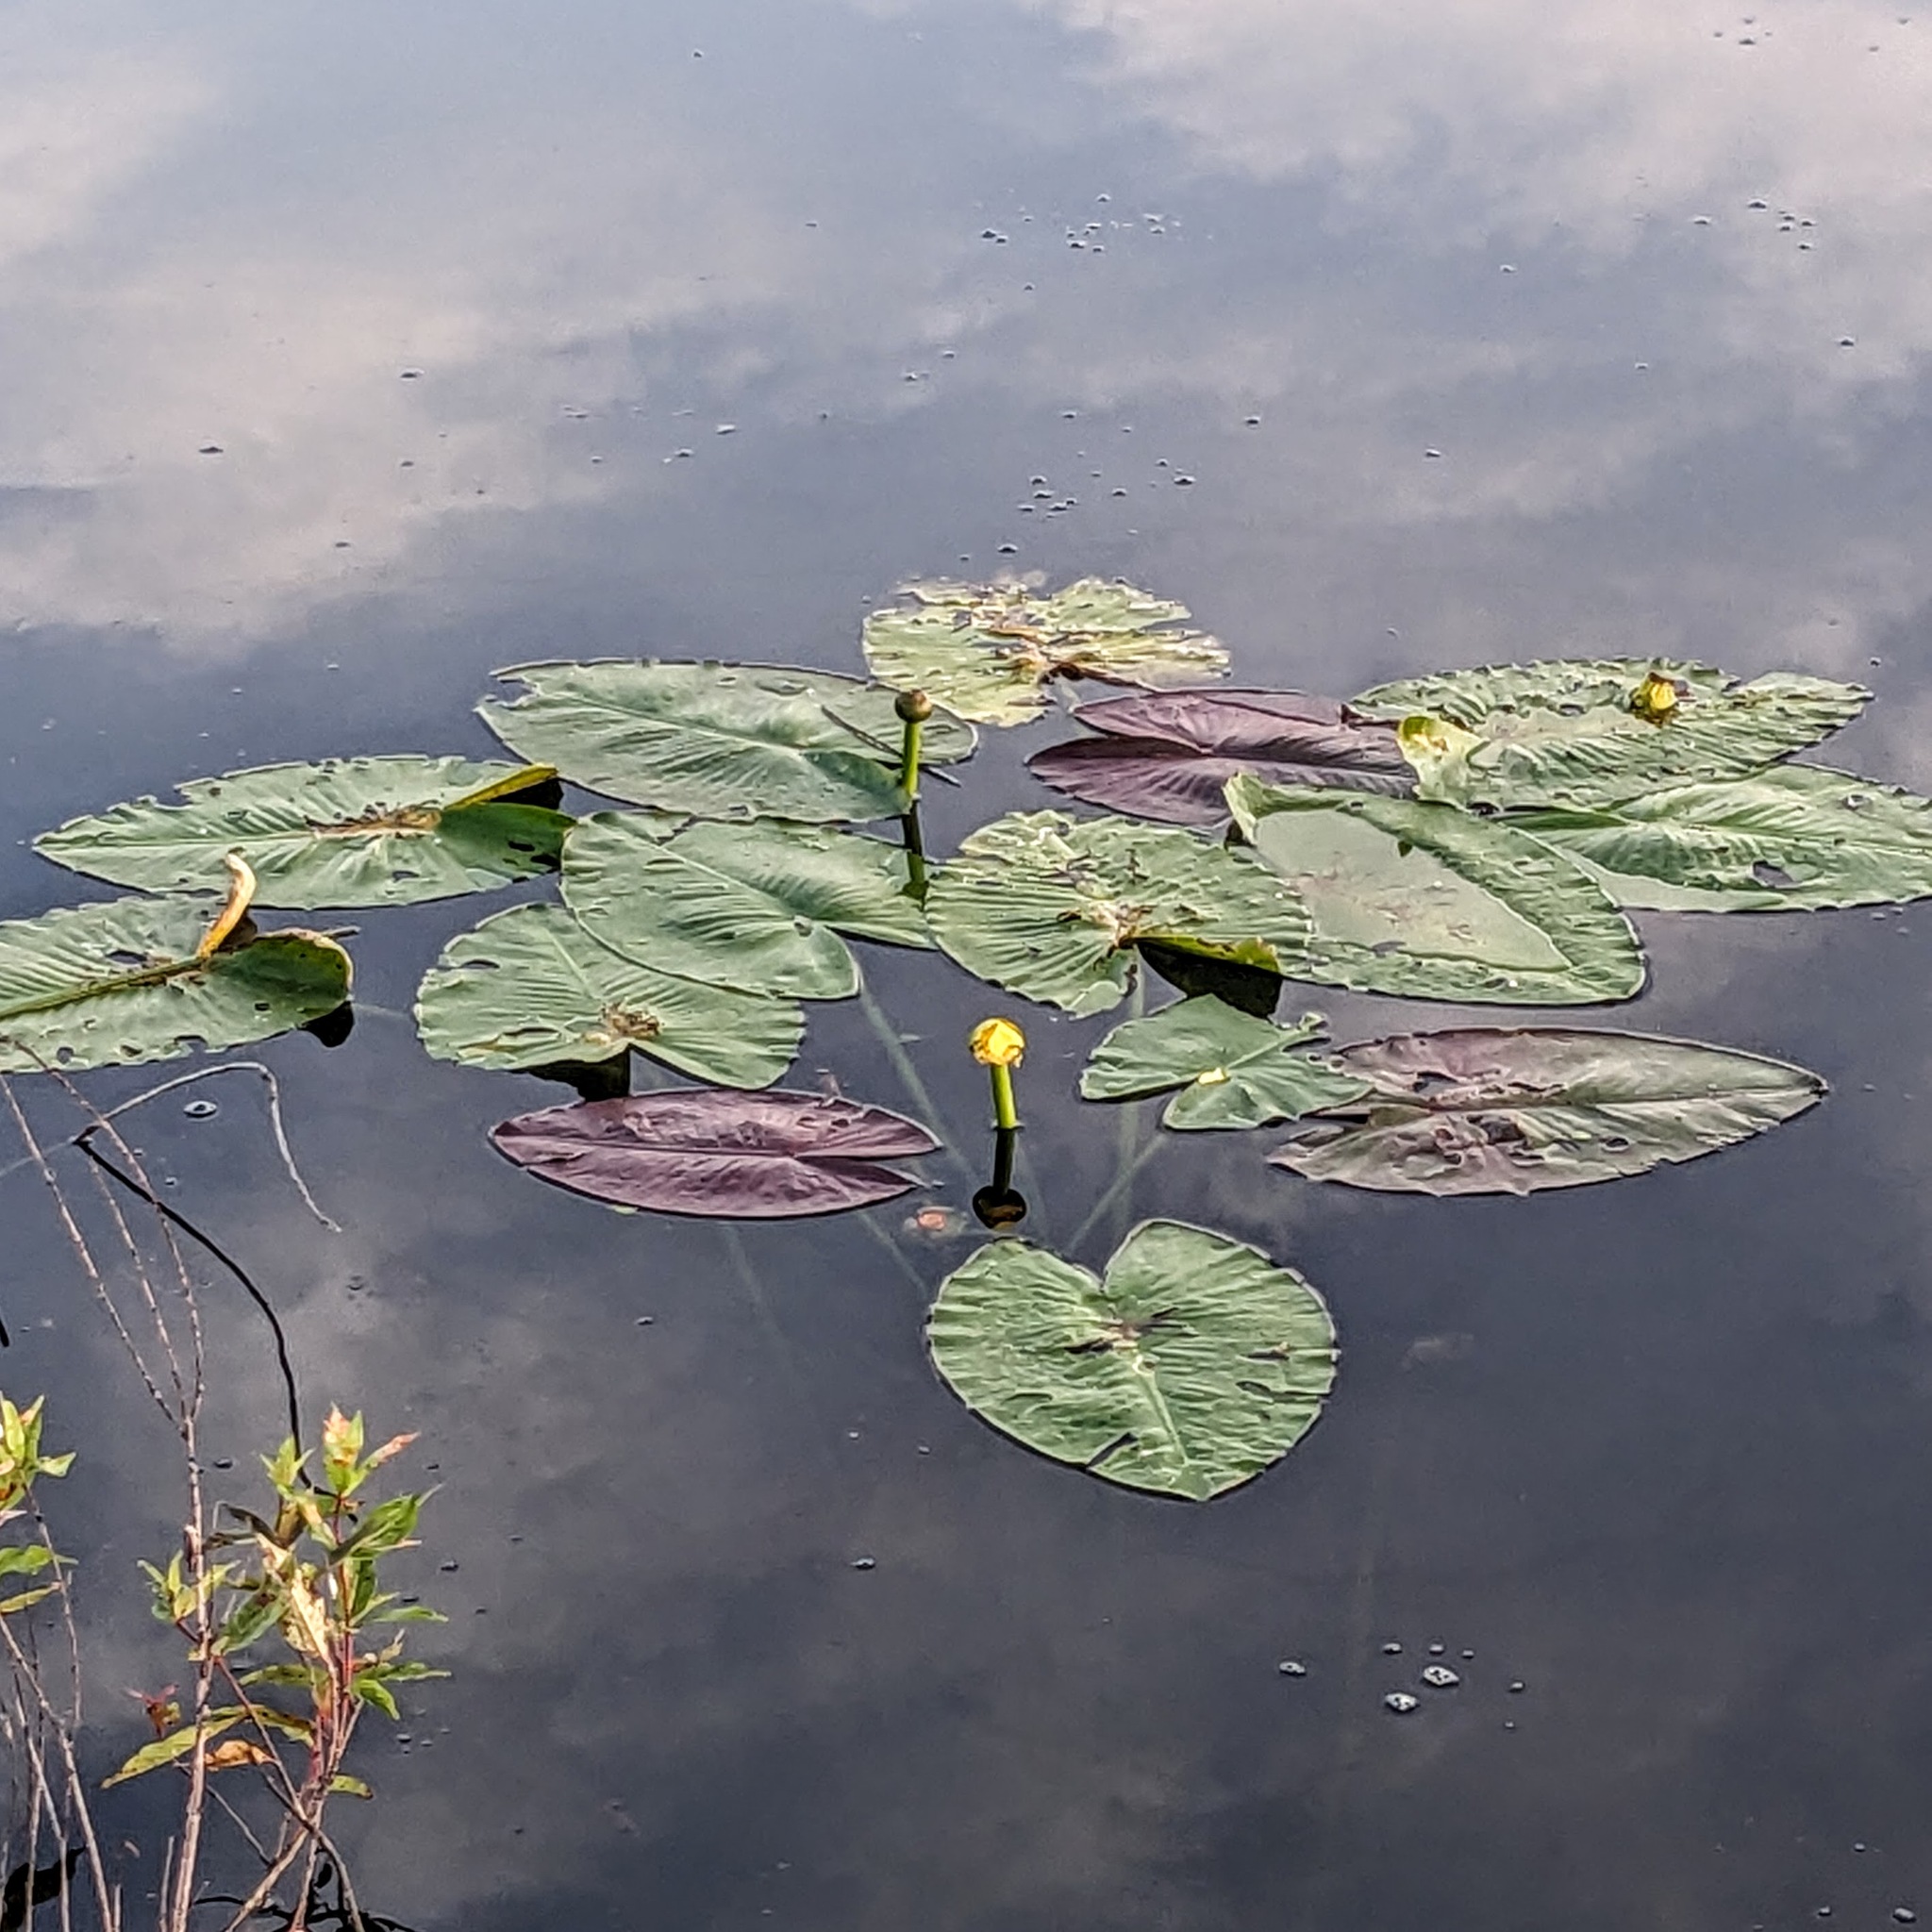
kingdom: Plantae
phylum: Tracheophyta
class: Magnoliopsida
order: Nymphaeales
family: Nymphaeaceae
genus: Nuphar
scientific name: Nuphar advena
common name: Spatter-dock
